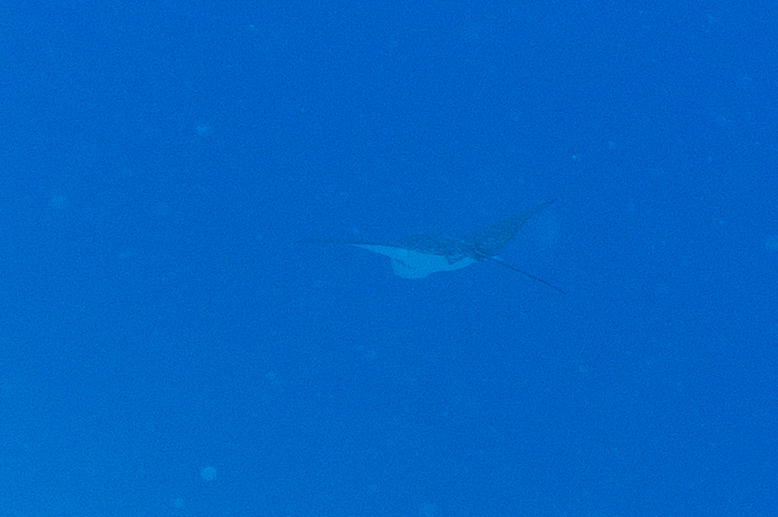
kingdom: Animalia
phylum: Chordata
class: Elasmobranchii
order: Myliobatiformes
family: Myliobatidae
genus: Aetobatus
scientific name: Aetobatus ocellatus
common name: Ocellated eagle ray
